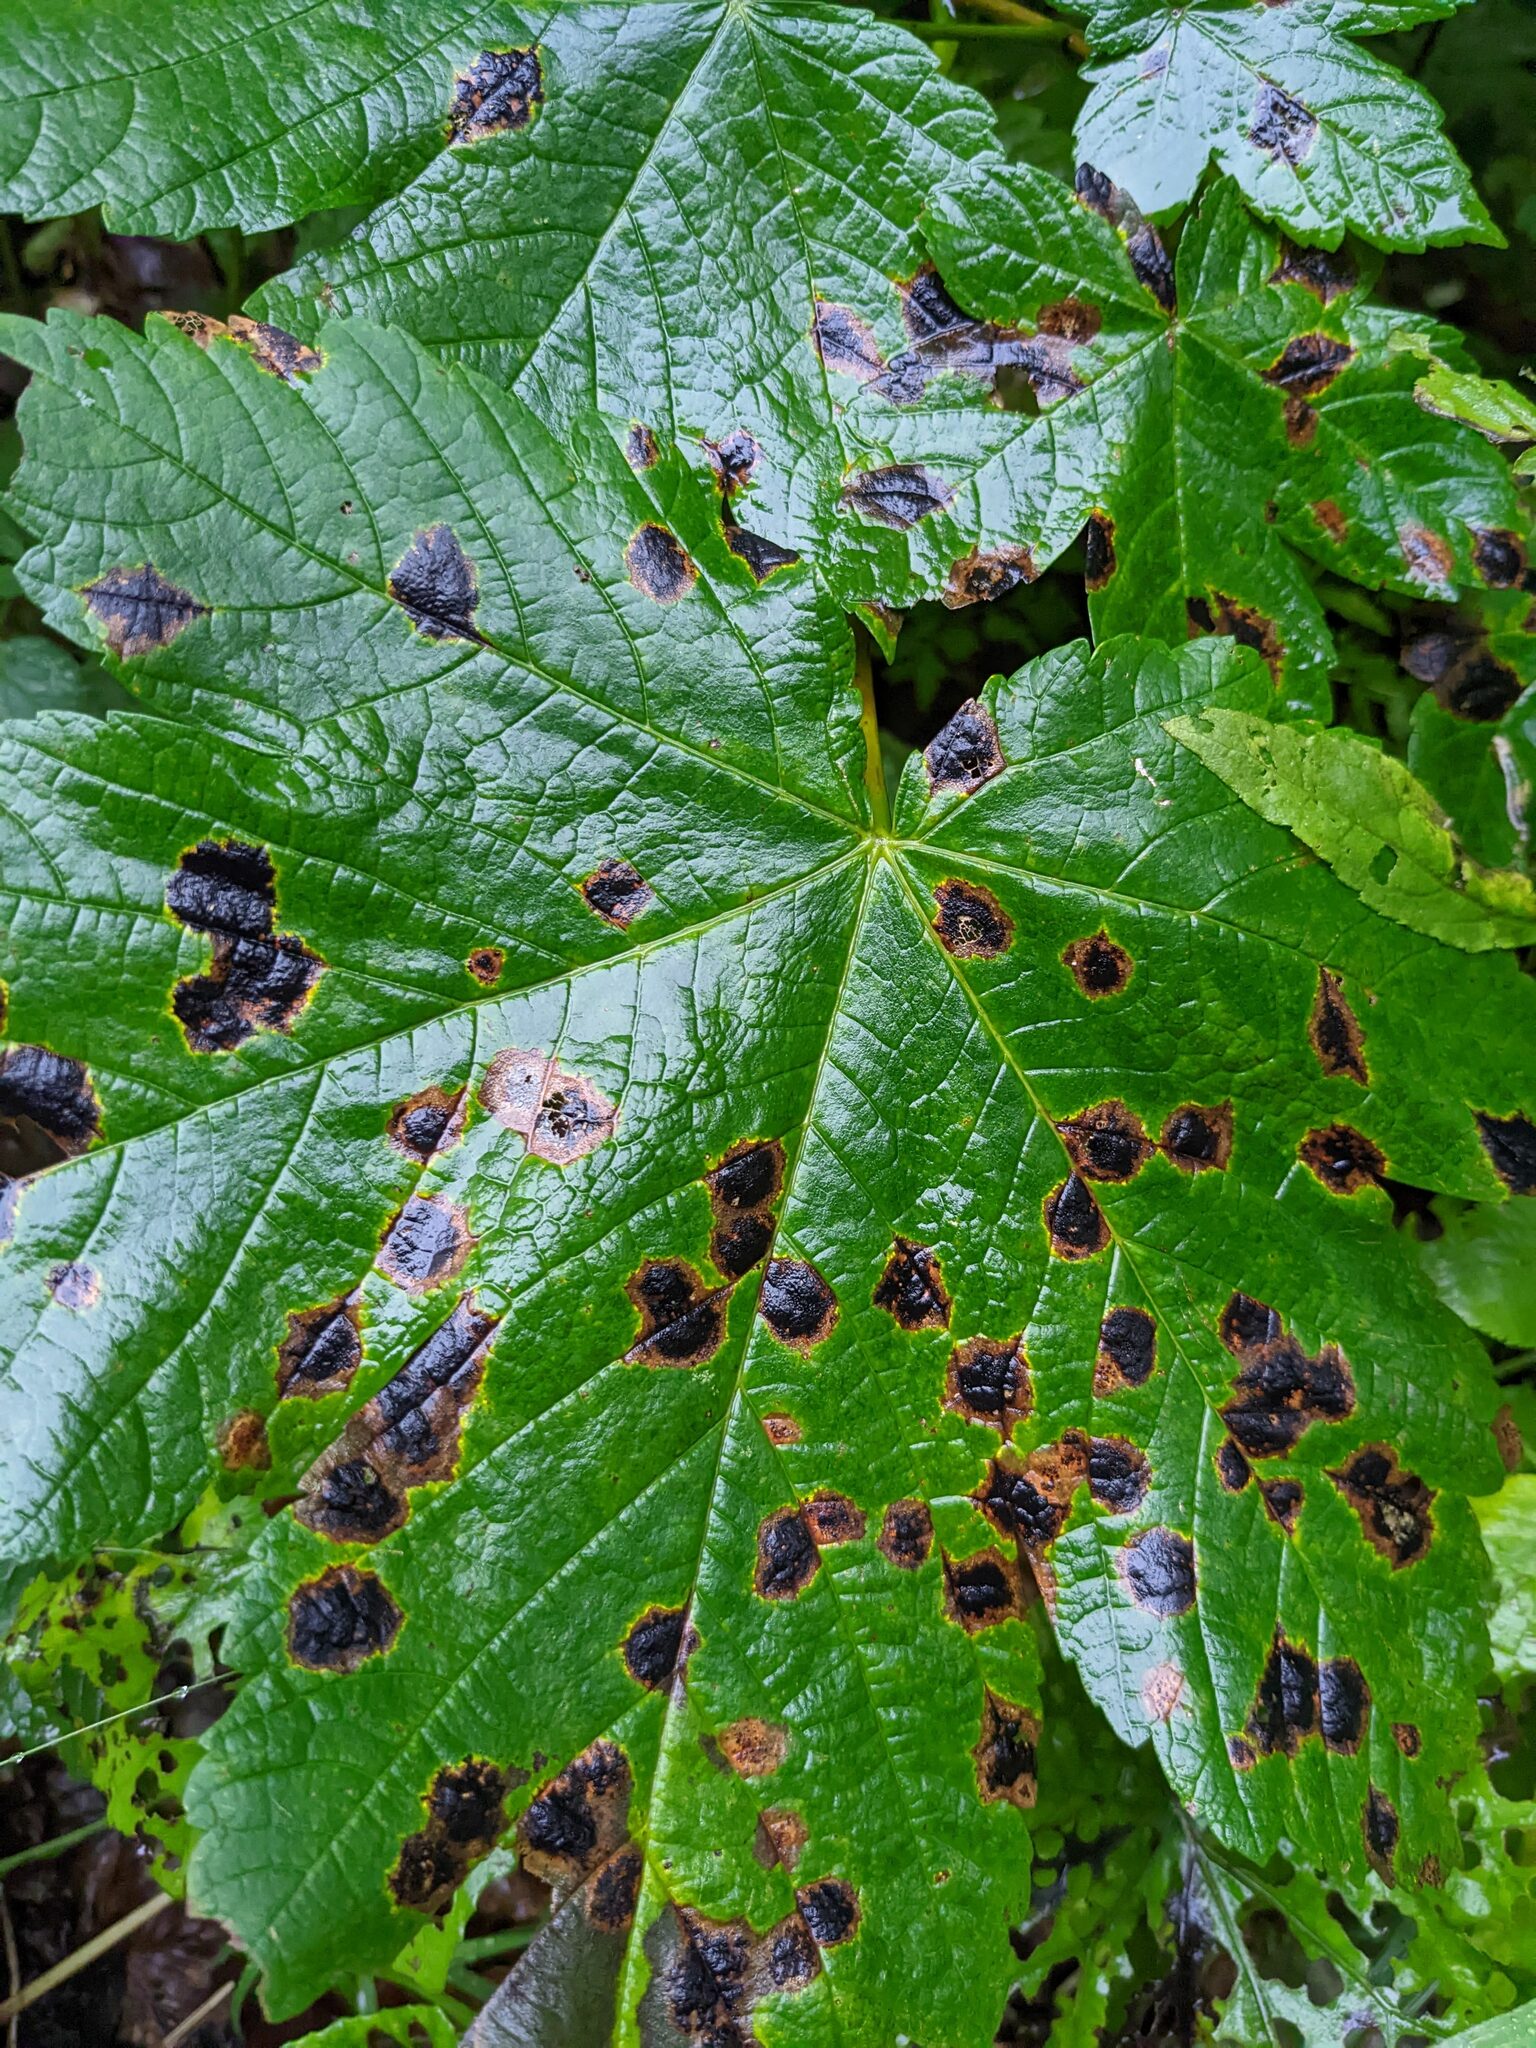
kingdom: Plantae
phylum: Tracheophyta
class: Magnoliopsida
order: Sapindales
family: Sapindaceae
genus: Acer
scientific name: Acer pseudoplatanus
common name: Sycamore
